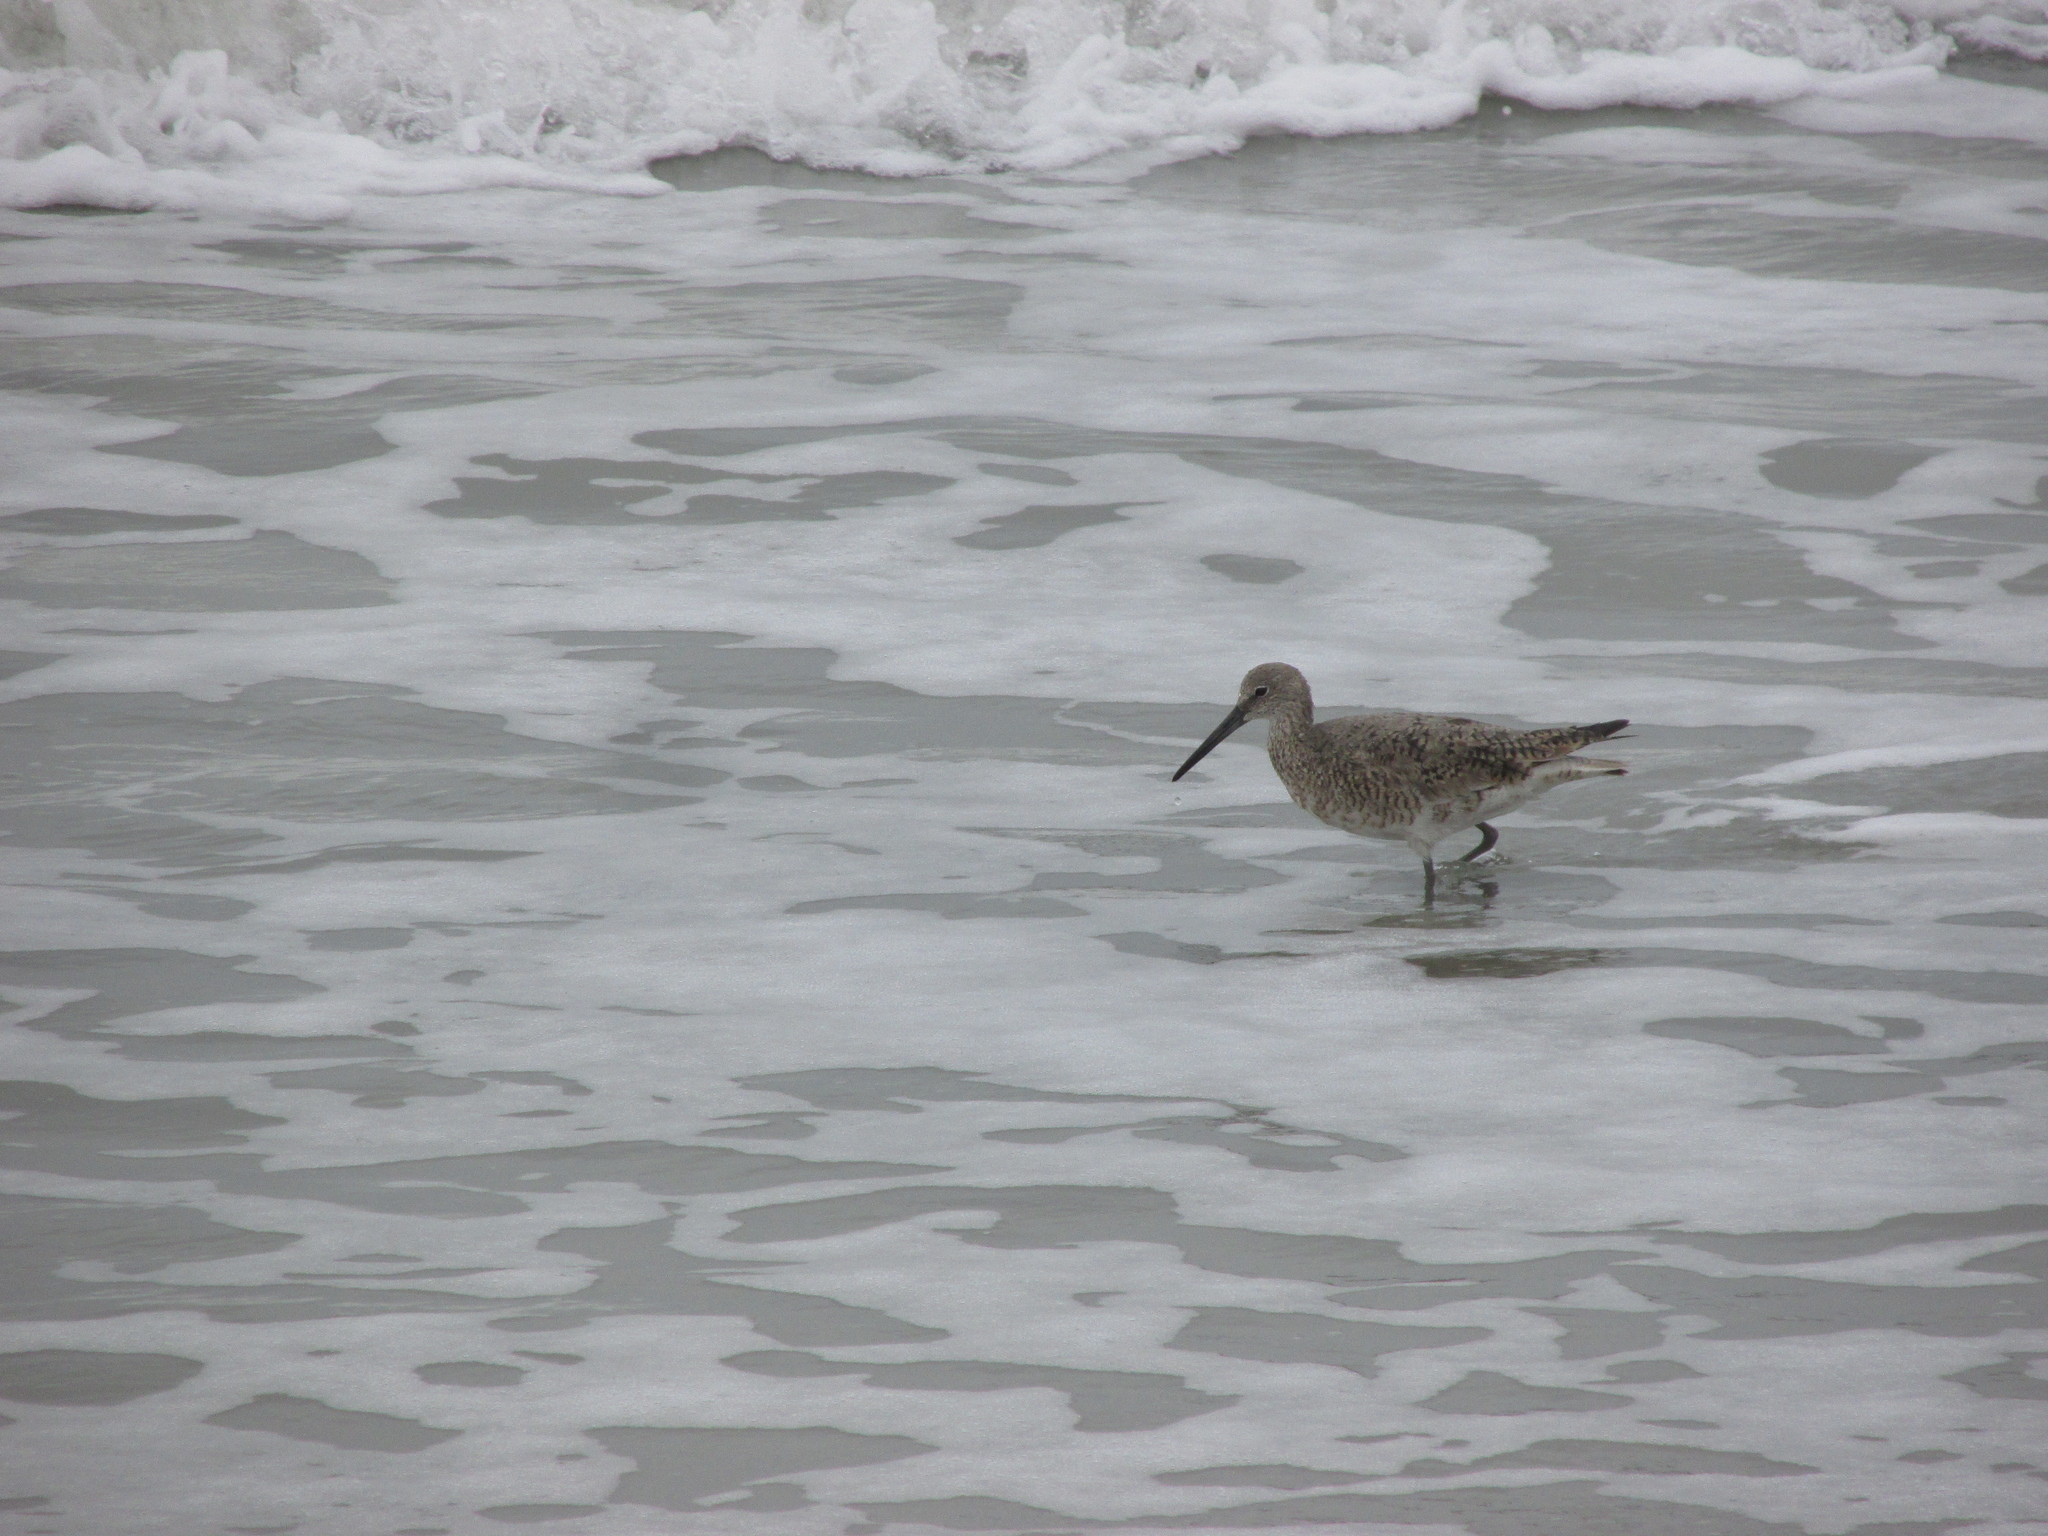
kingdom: Animalia
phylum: Chordata
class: Aves
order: Charadriiformes
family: Scolopacidae
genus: Tringa
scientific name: Tringa semipalmata
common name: Willet
